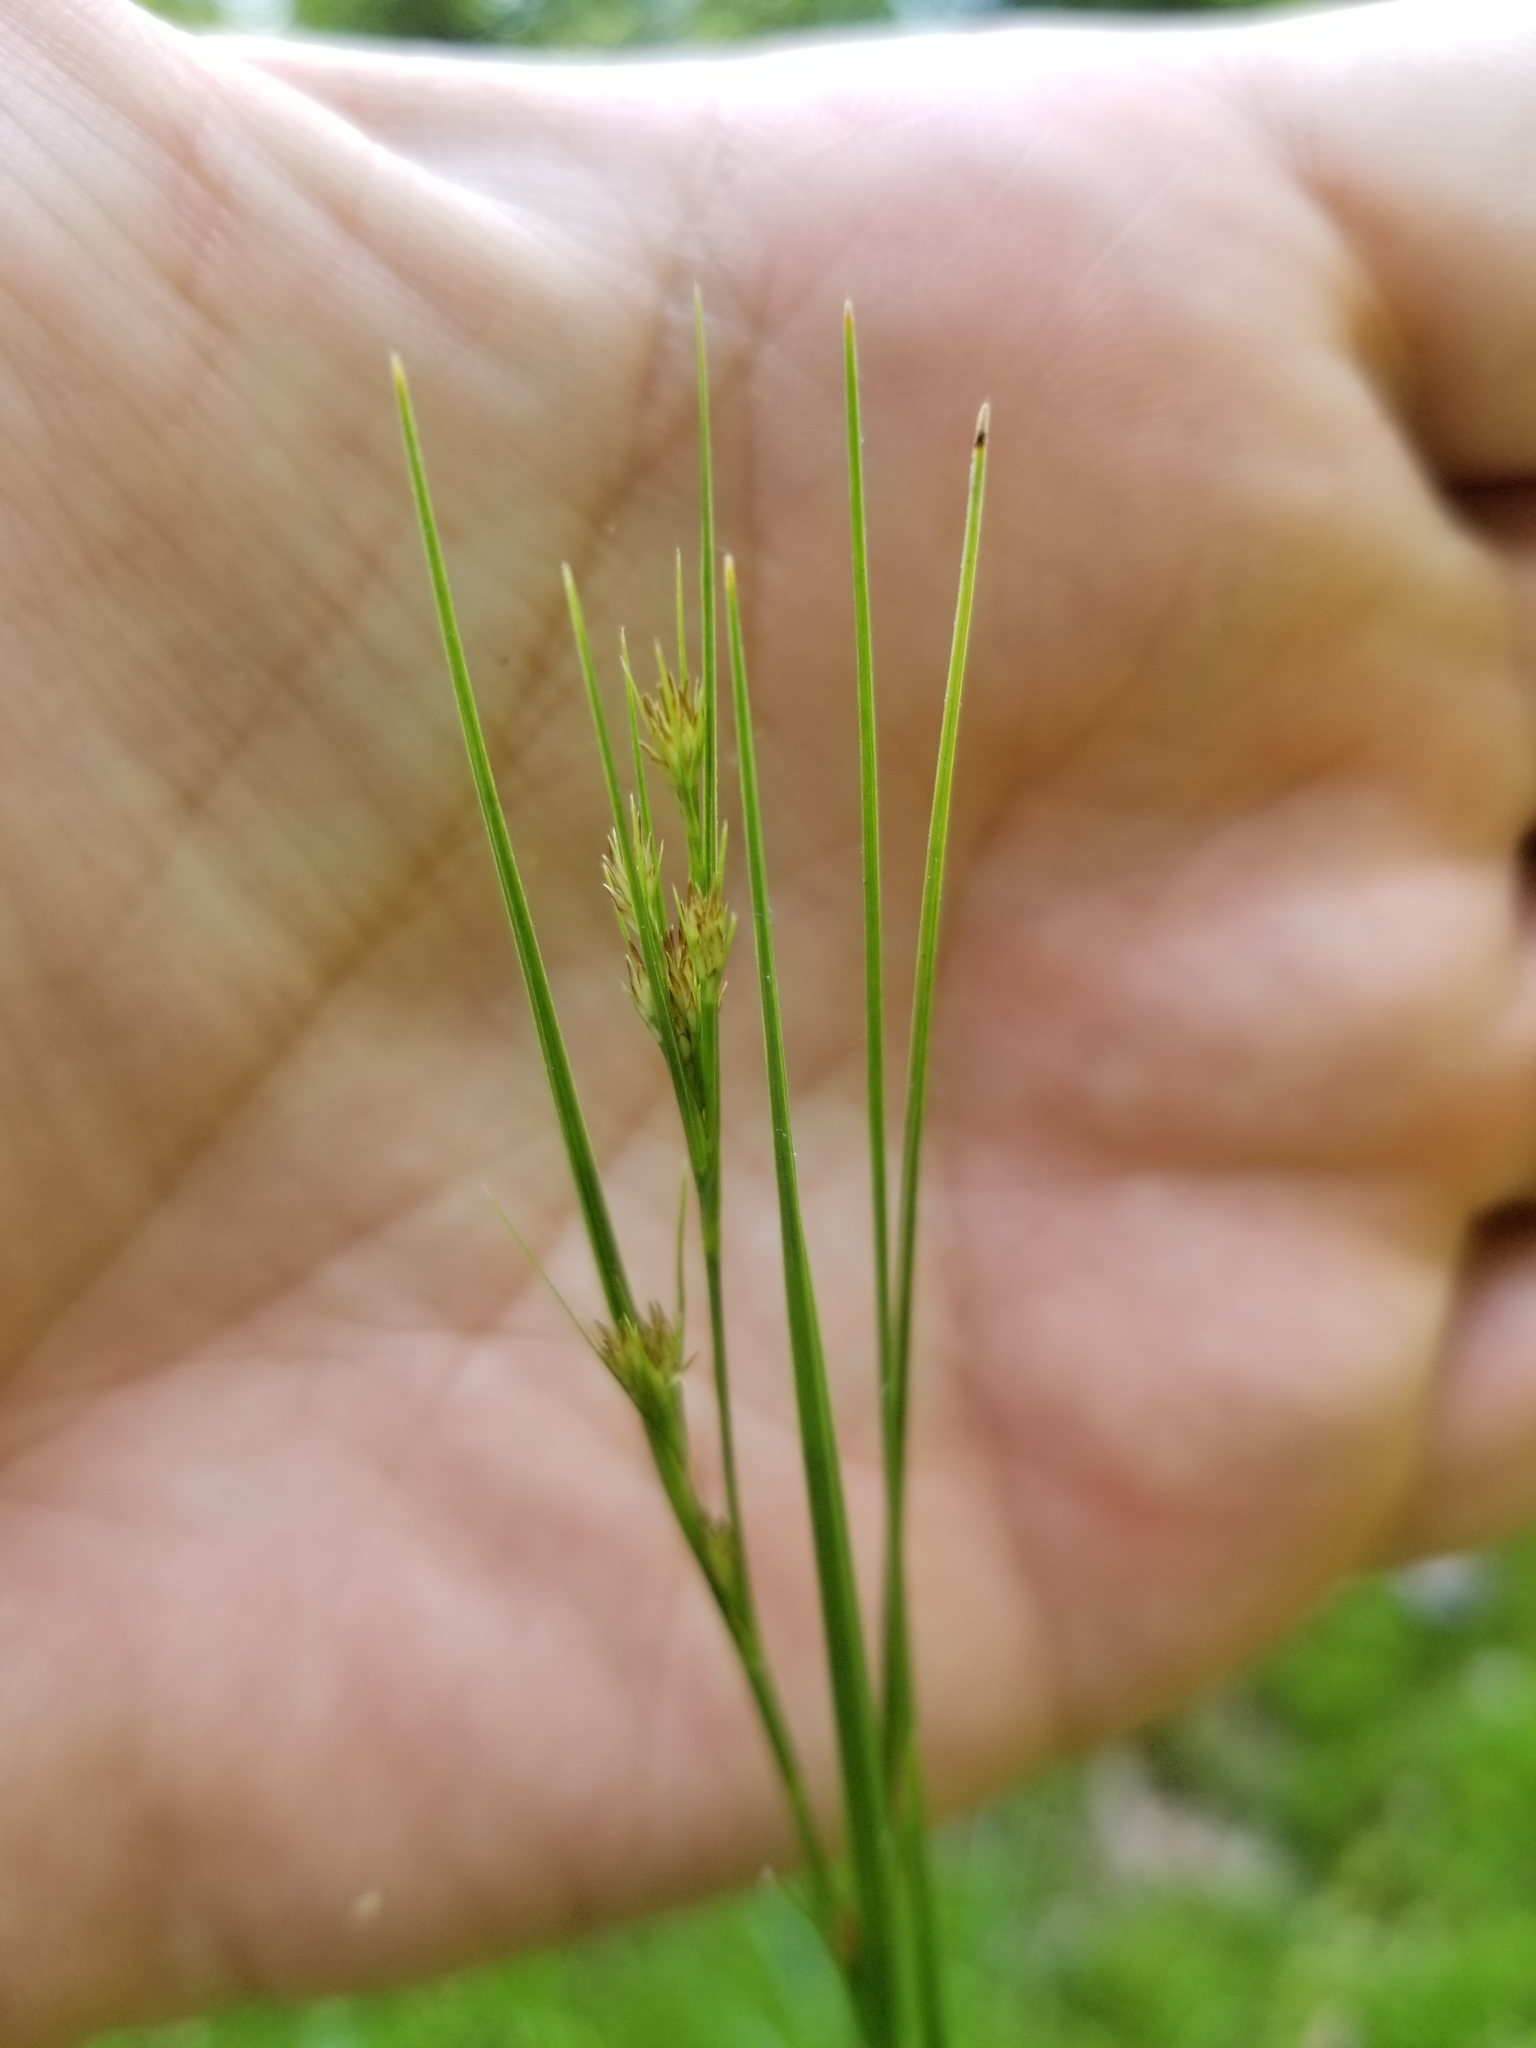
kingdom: Plantae
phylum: Tracheophyta
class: Liliopsida
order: Poales
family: Juncaceae
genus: Juncus
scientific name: Juncus tenuis
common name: Slender rush
